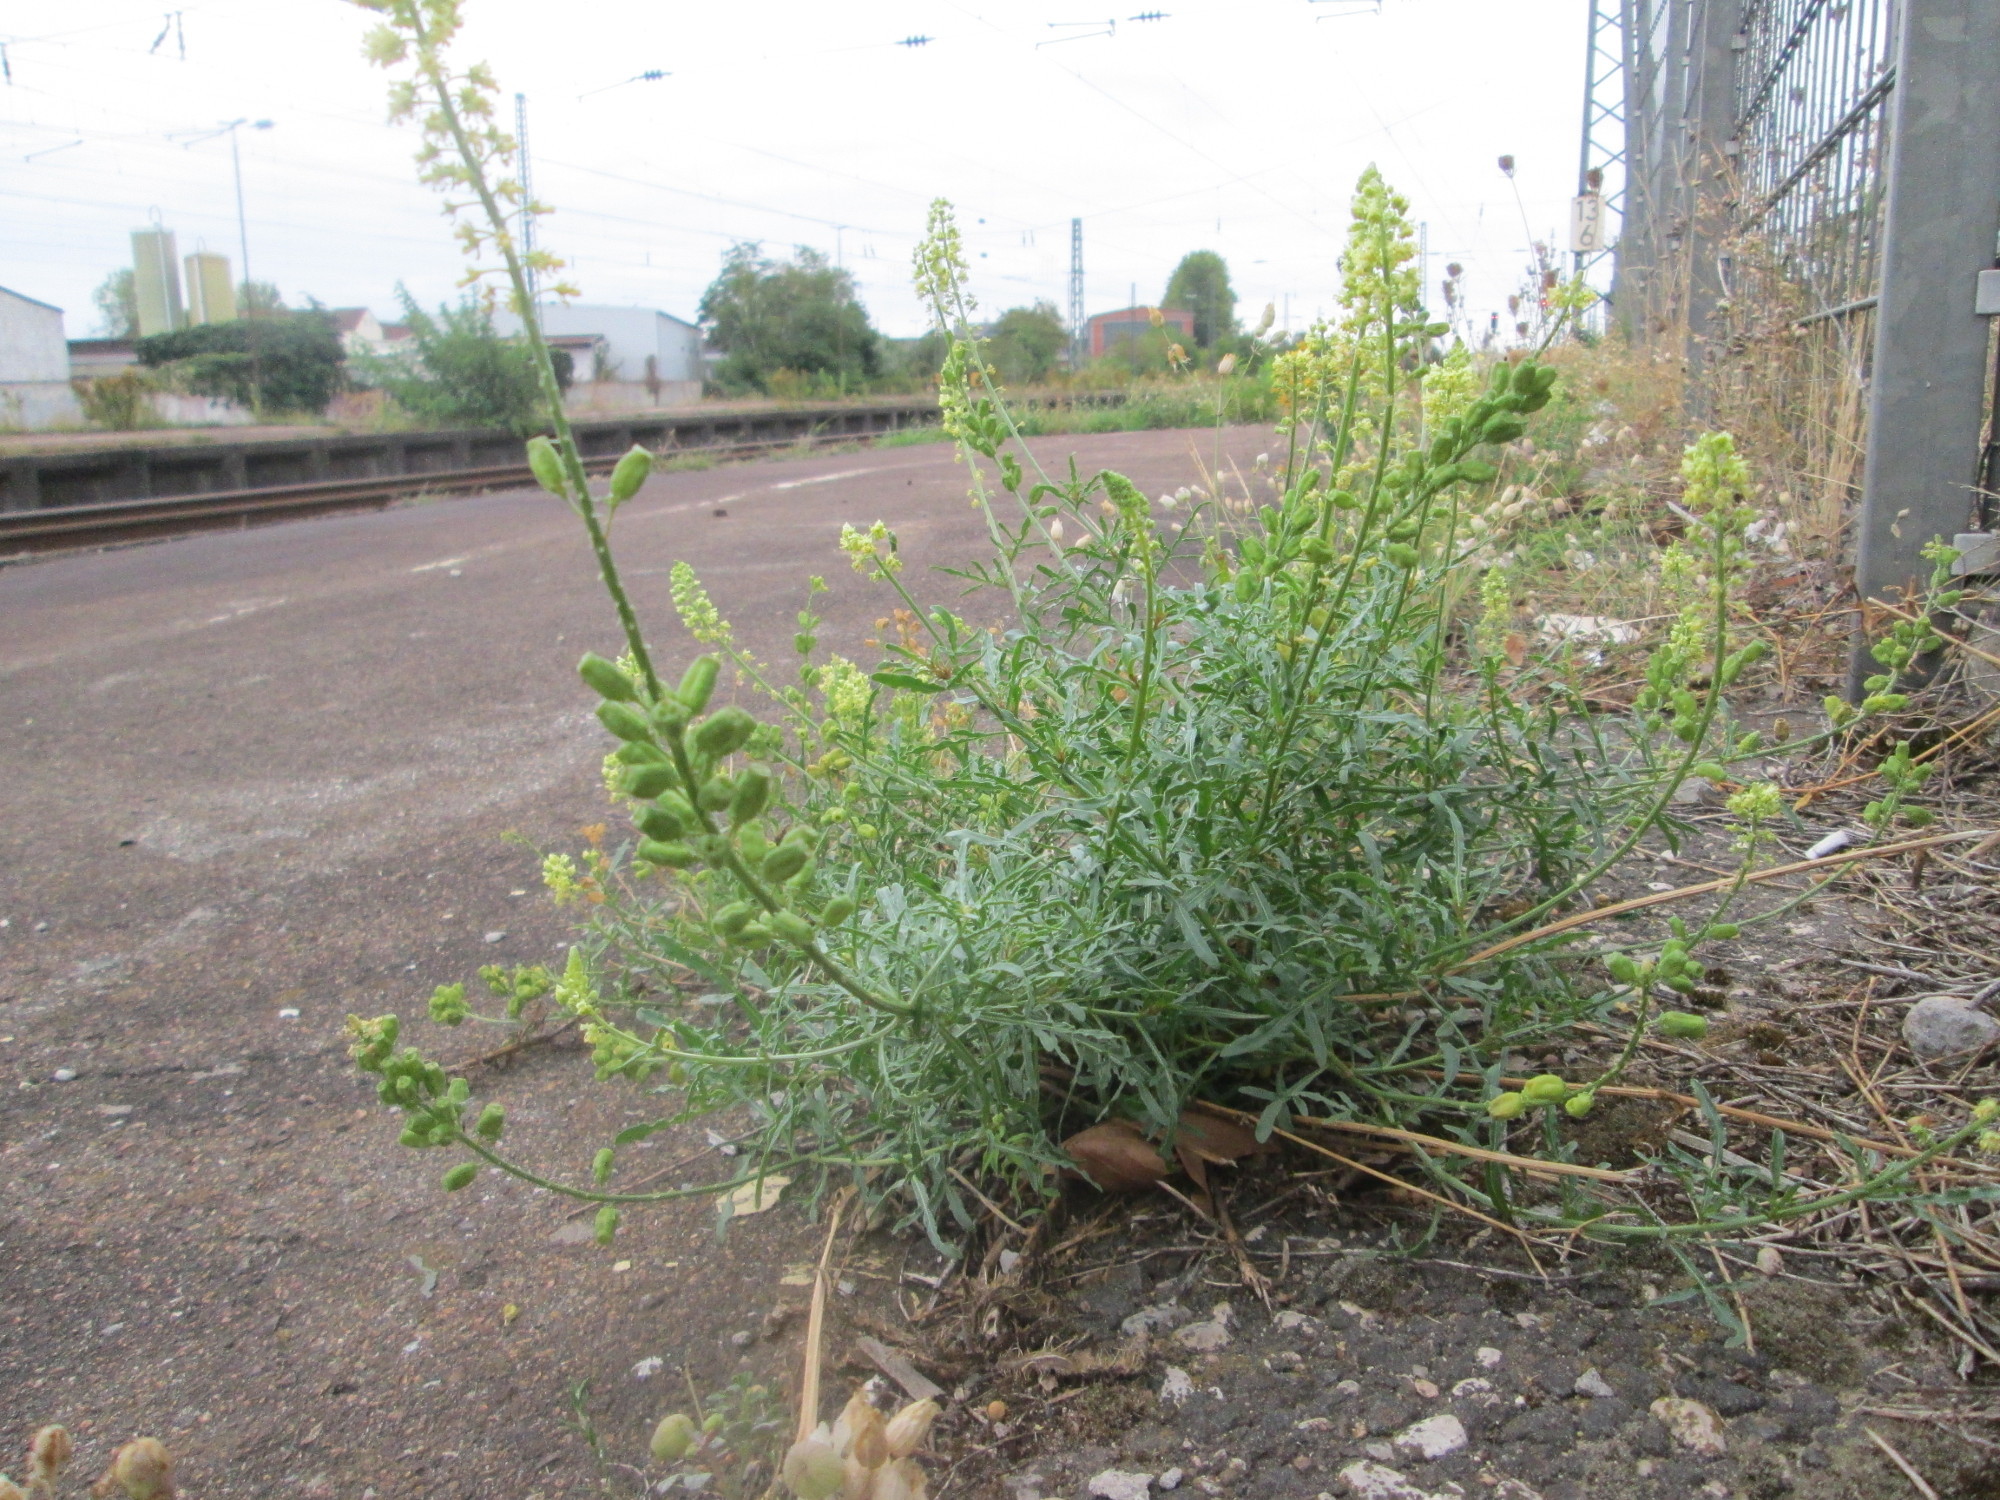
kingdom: Plantae
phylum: Tracheophyta
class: Magnoliopsida
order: Brassicales
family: Resedaceae
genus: Reseda
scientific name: Reseda lutea
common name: Wild mignonette
